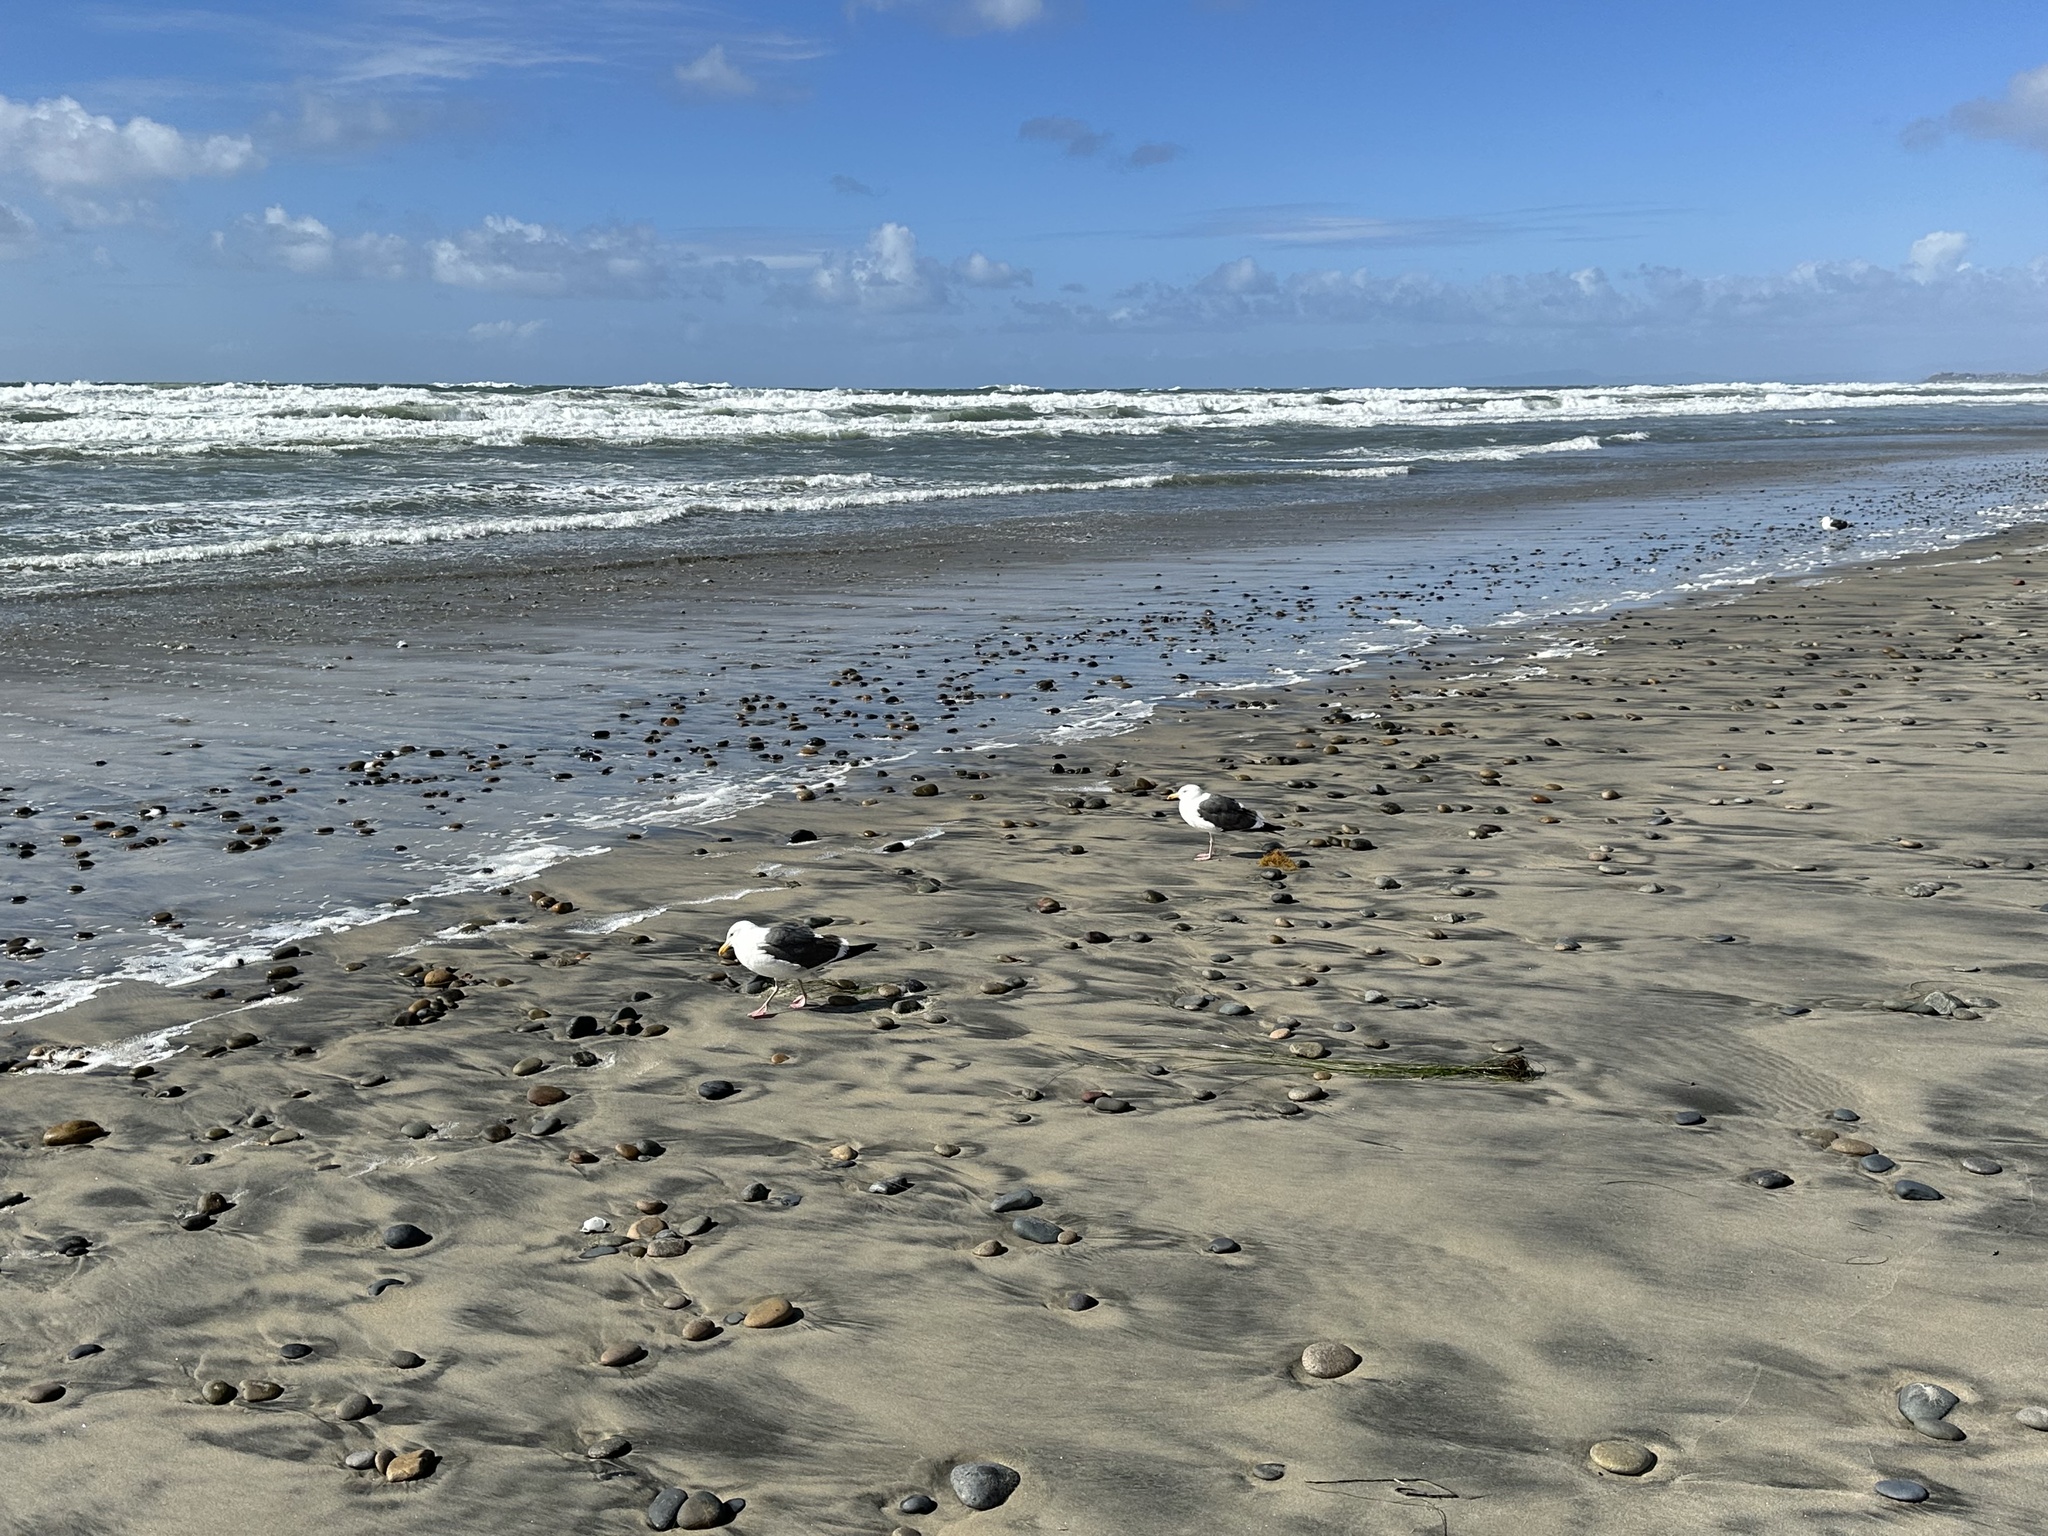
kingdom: Animalia
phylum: Chordata
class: Aves
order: Charadriiformes
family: Laridae
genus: Larus
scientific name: Larus occidentalis
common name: Western gull
